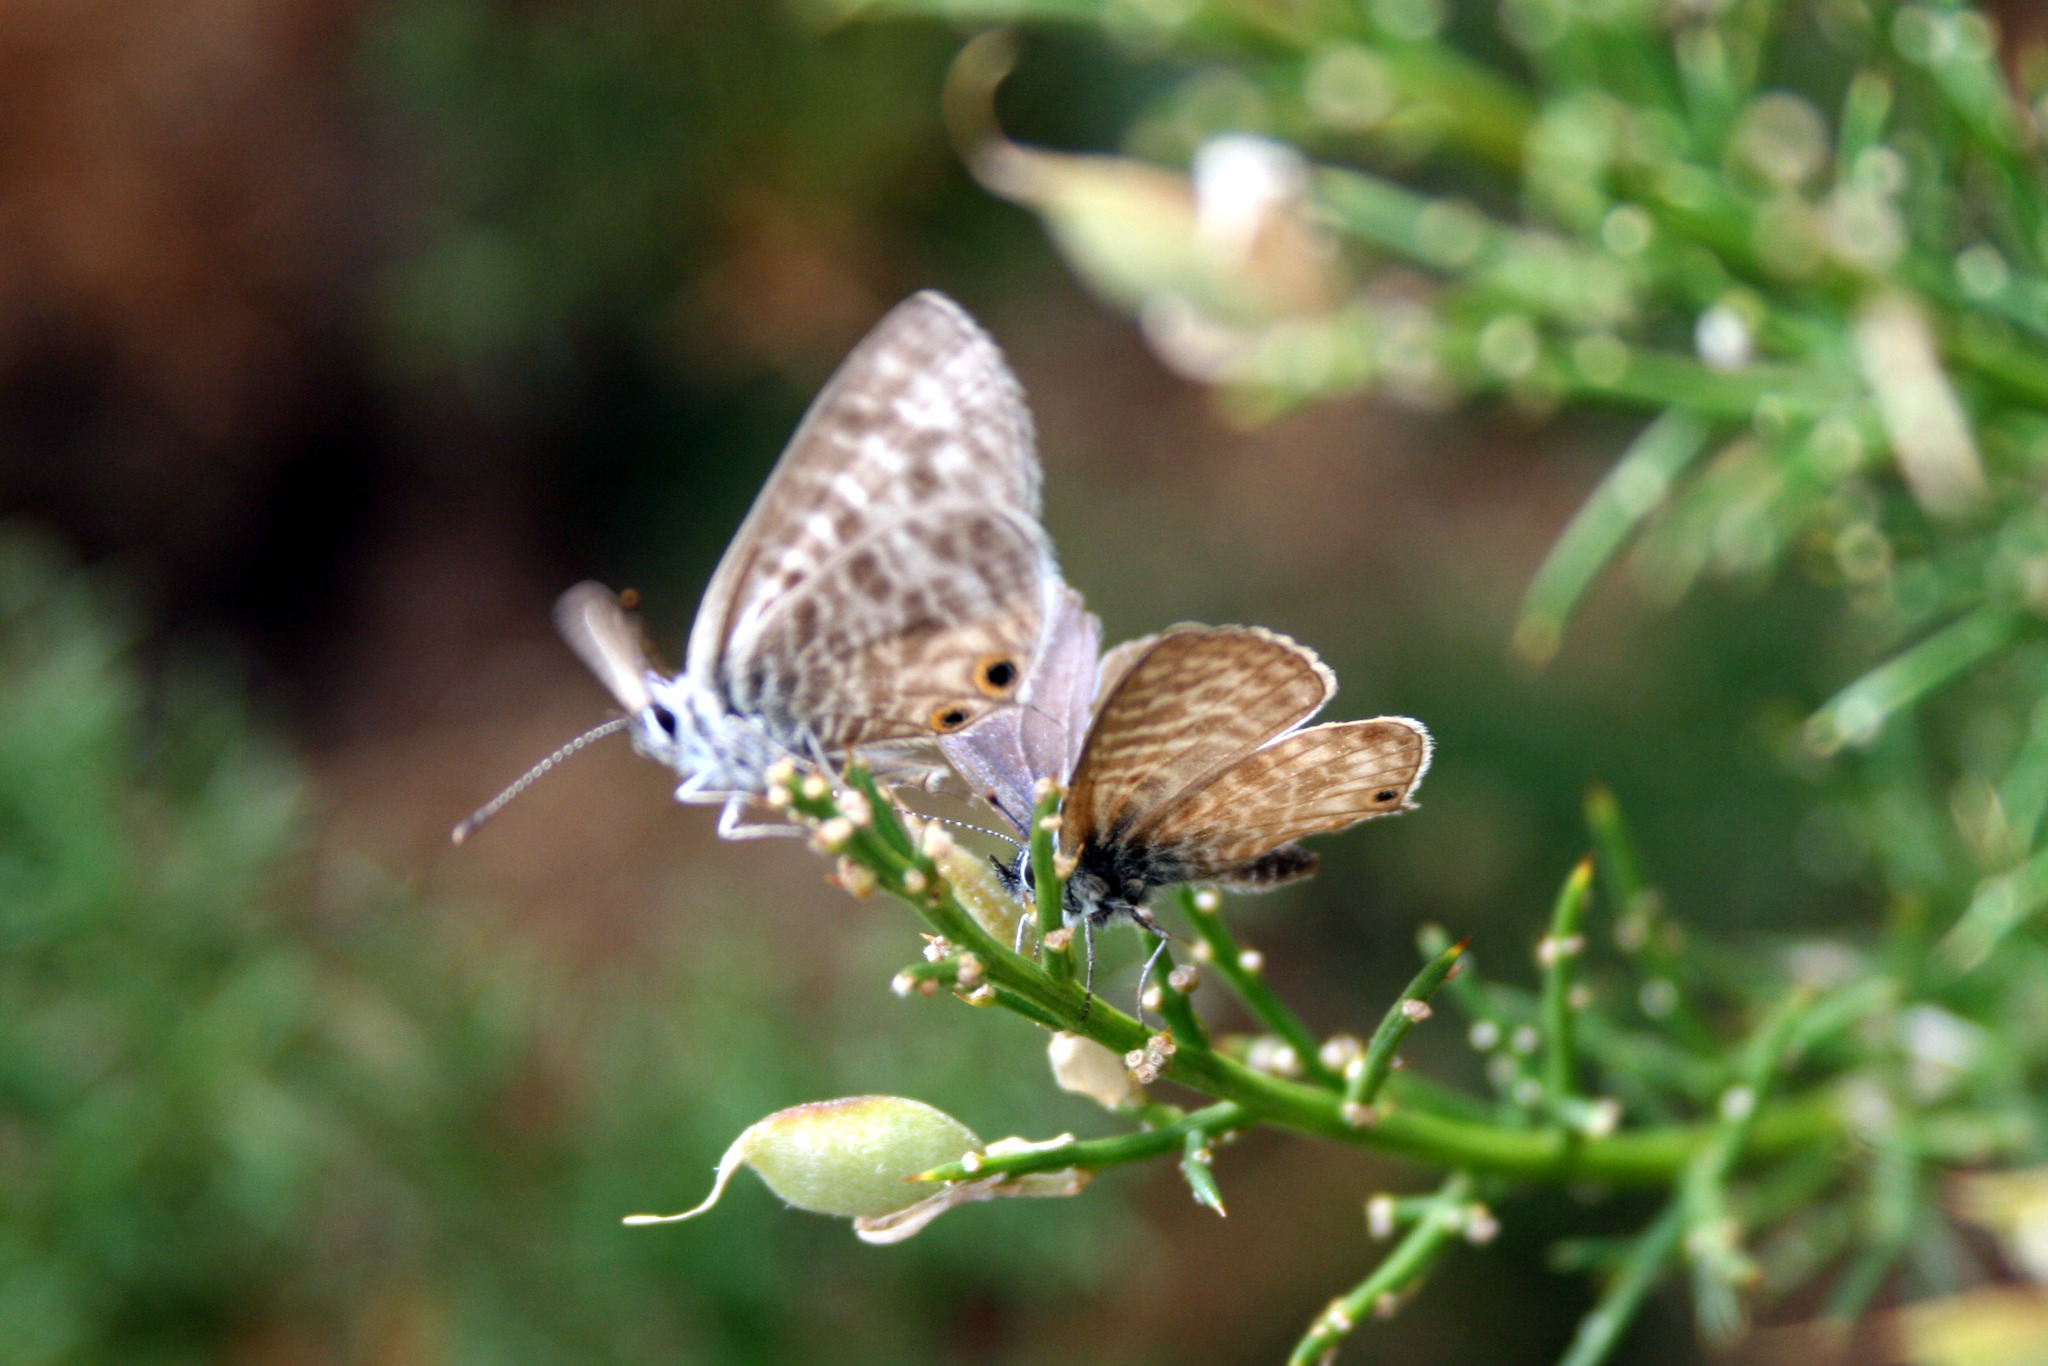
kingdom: Animalia
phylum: Arthropoda
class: Insecta
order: Lepidoptera
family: Lycaenidae
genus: Leptotes
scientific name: Leptotes pirithous
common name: Lang's short-tailed blue
